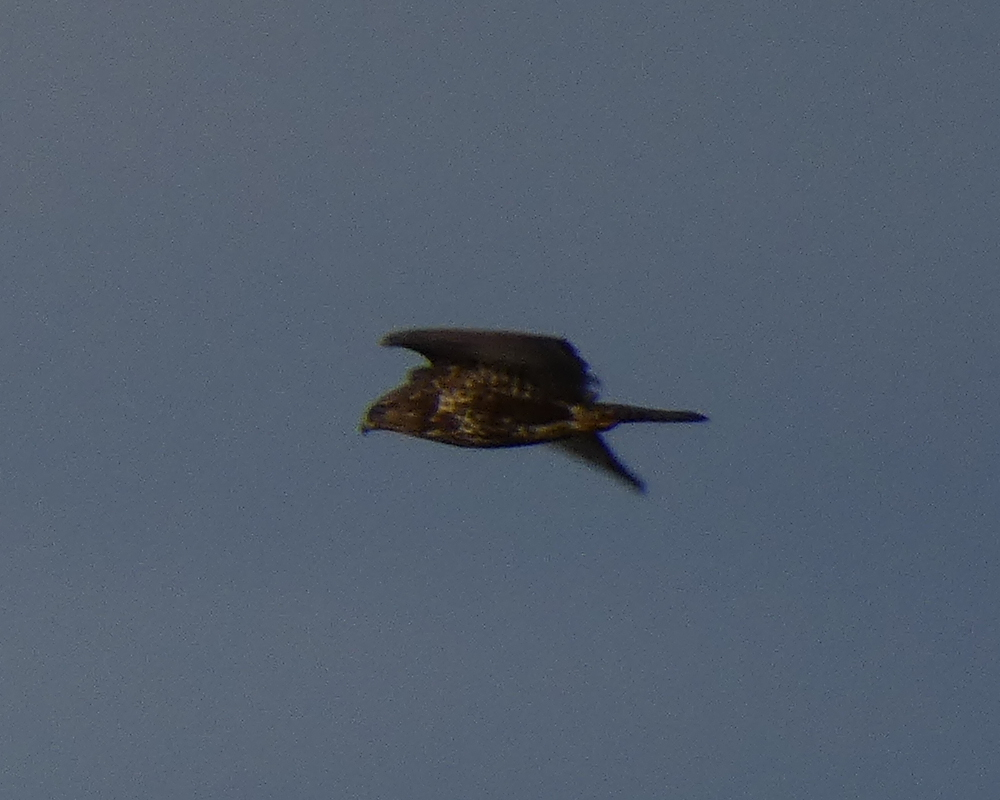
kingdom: Animalia
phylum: Chordata
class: Aves
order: Accipitriformes
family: Accipitridae
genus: Buteo
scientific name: Buteo buteo
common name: Common buzzard
